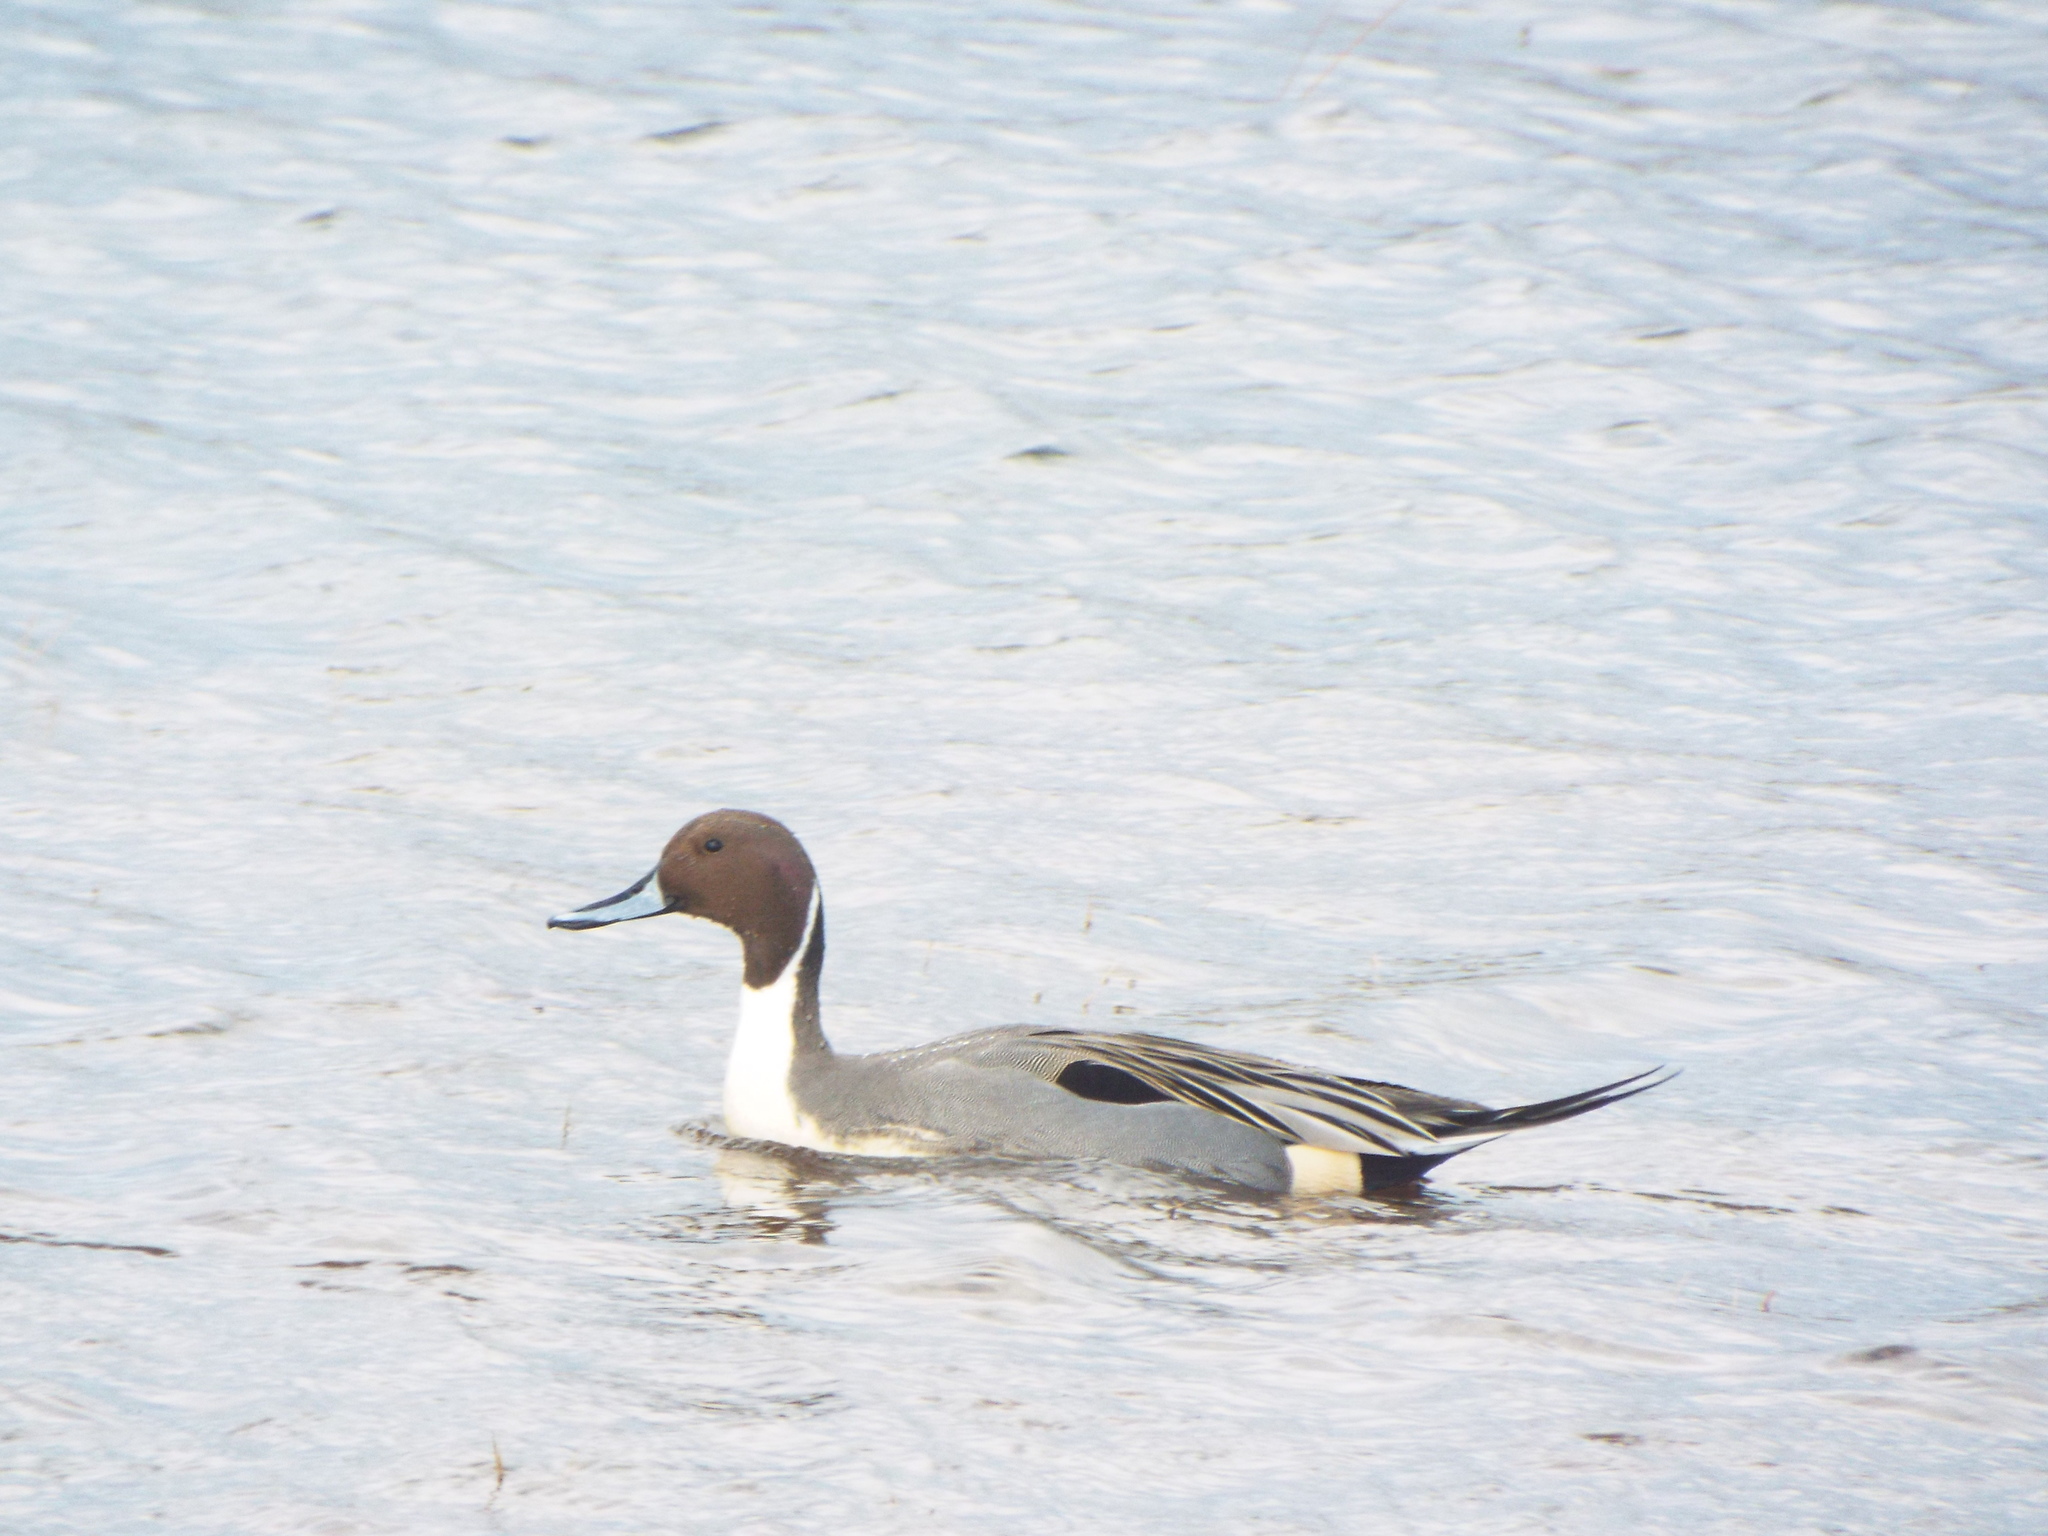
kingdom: Animalia
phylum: Chordata
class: Aves
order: Anseriformes
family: Anatidae
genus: Anas
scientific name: Anas acuta
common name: Northern pintail
